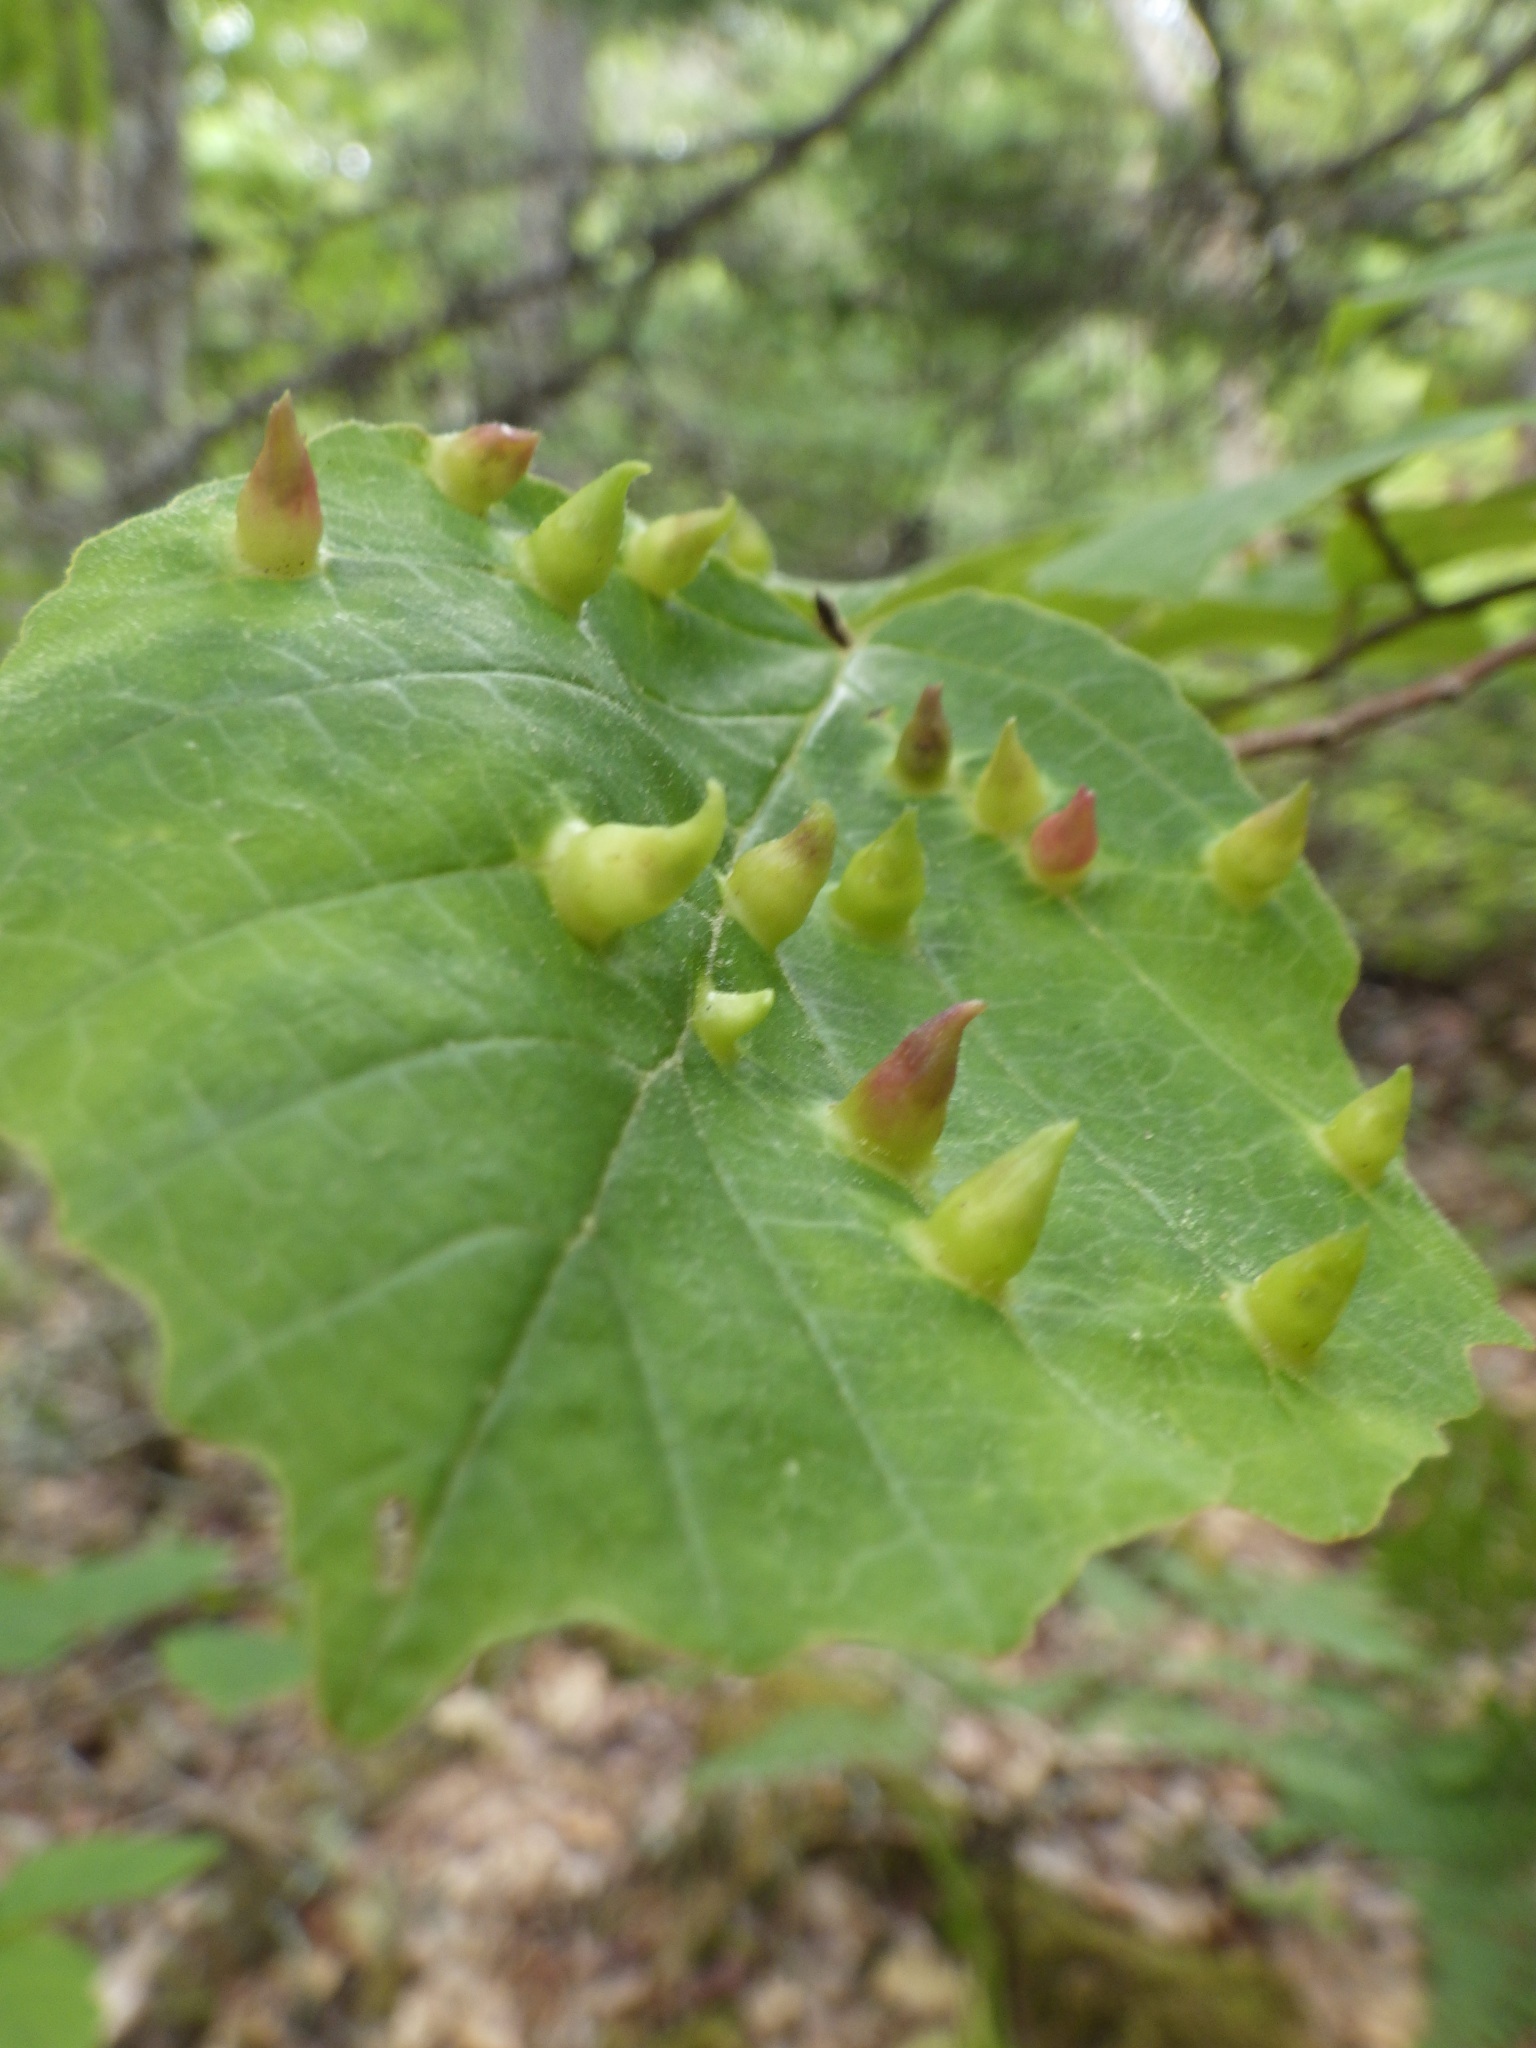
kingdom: Animalia
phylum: Arthropoda
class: Insecta
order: Hemiptera
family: Aphididae
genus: Hormaphis
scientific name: Hormaphis hamamelidis
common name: Witch-hazel cone gall aphid
